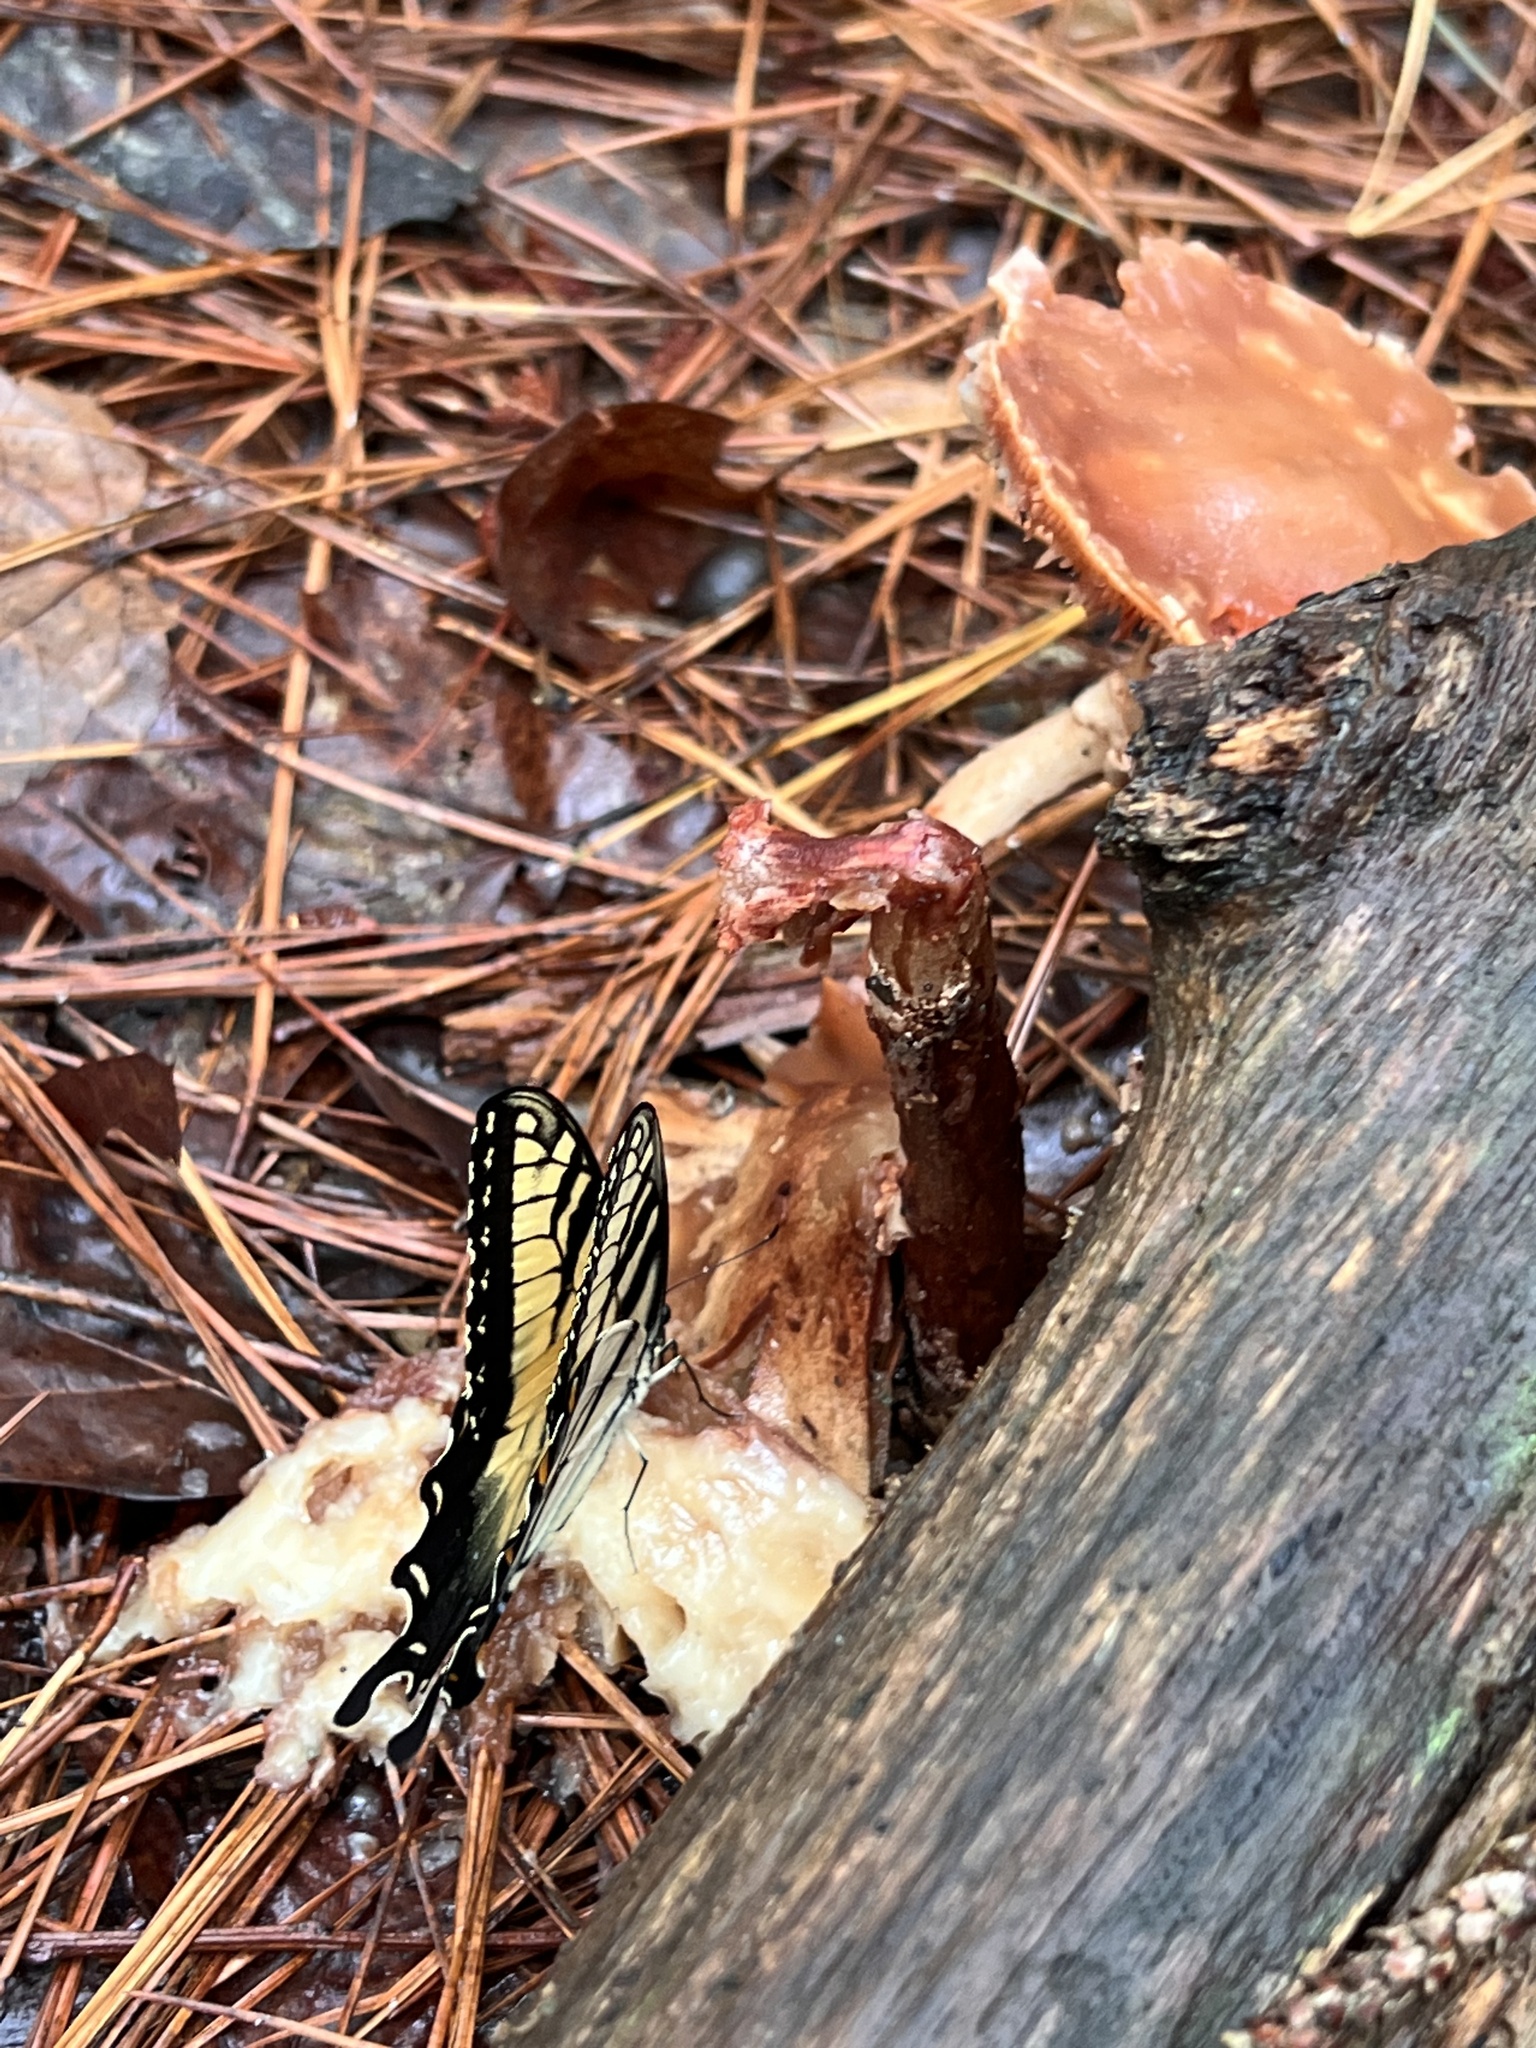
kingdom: Animalia
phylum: Arthropoda
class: Insecta
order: Lepidoptera
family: Papilionidae
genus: Papilio
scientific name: Papilio glaucus
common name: Tiger swallowtail
